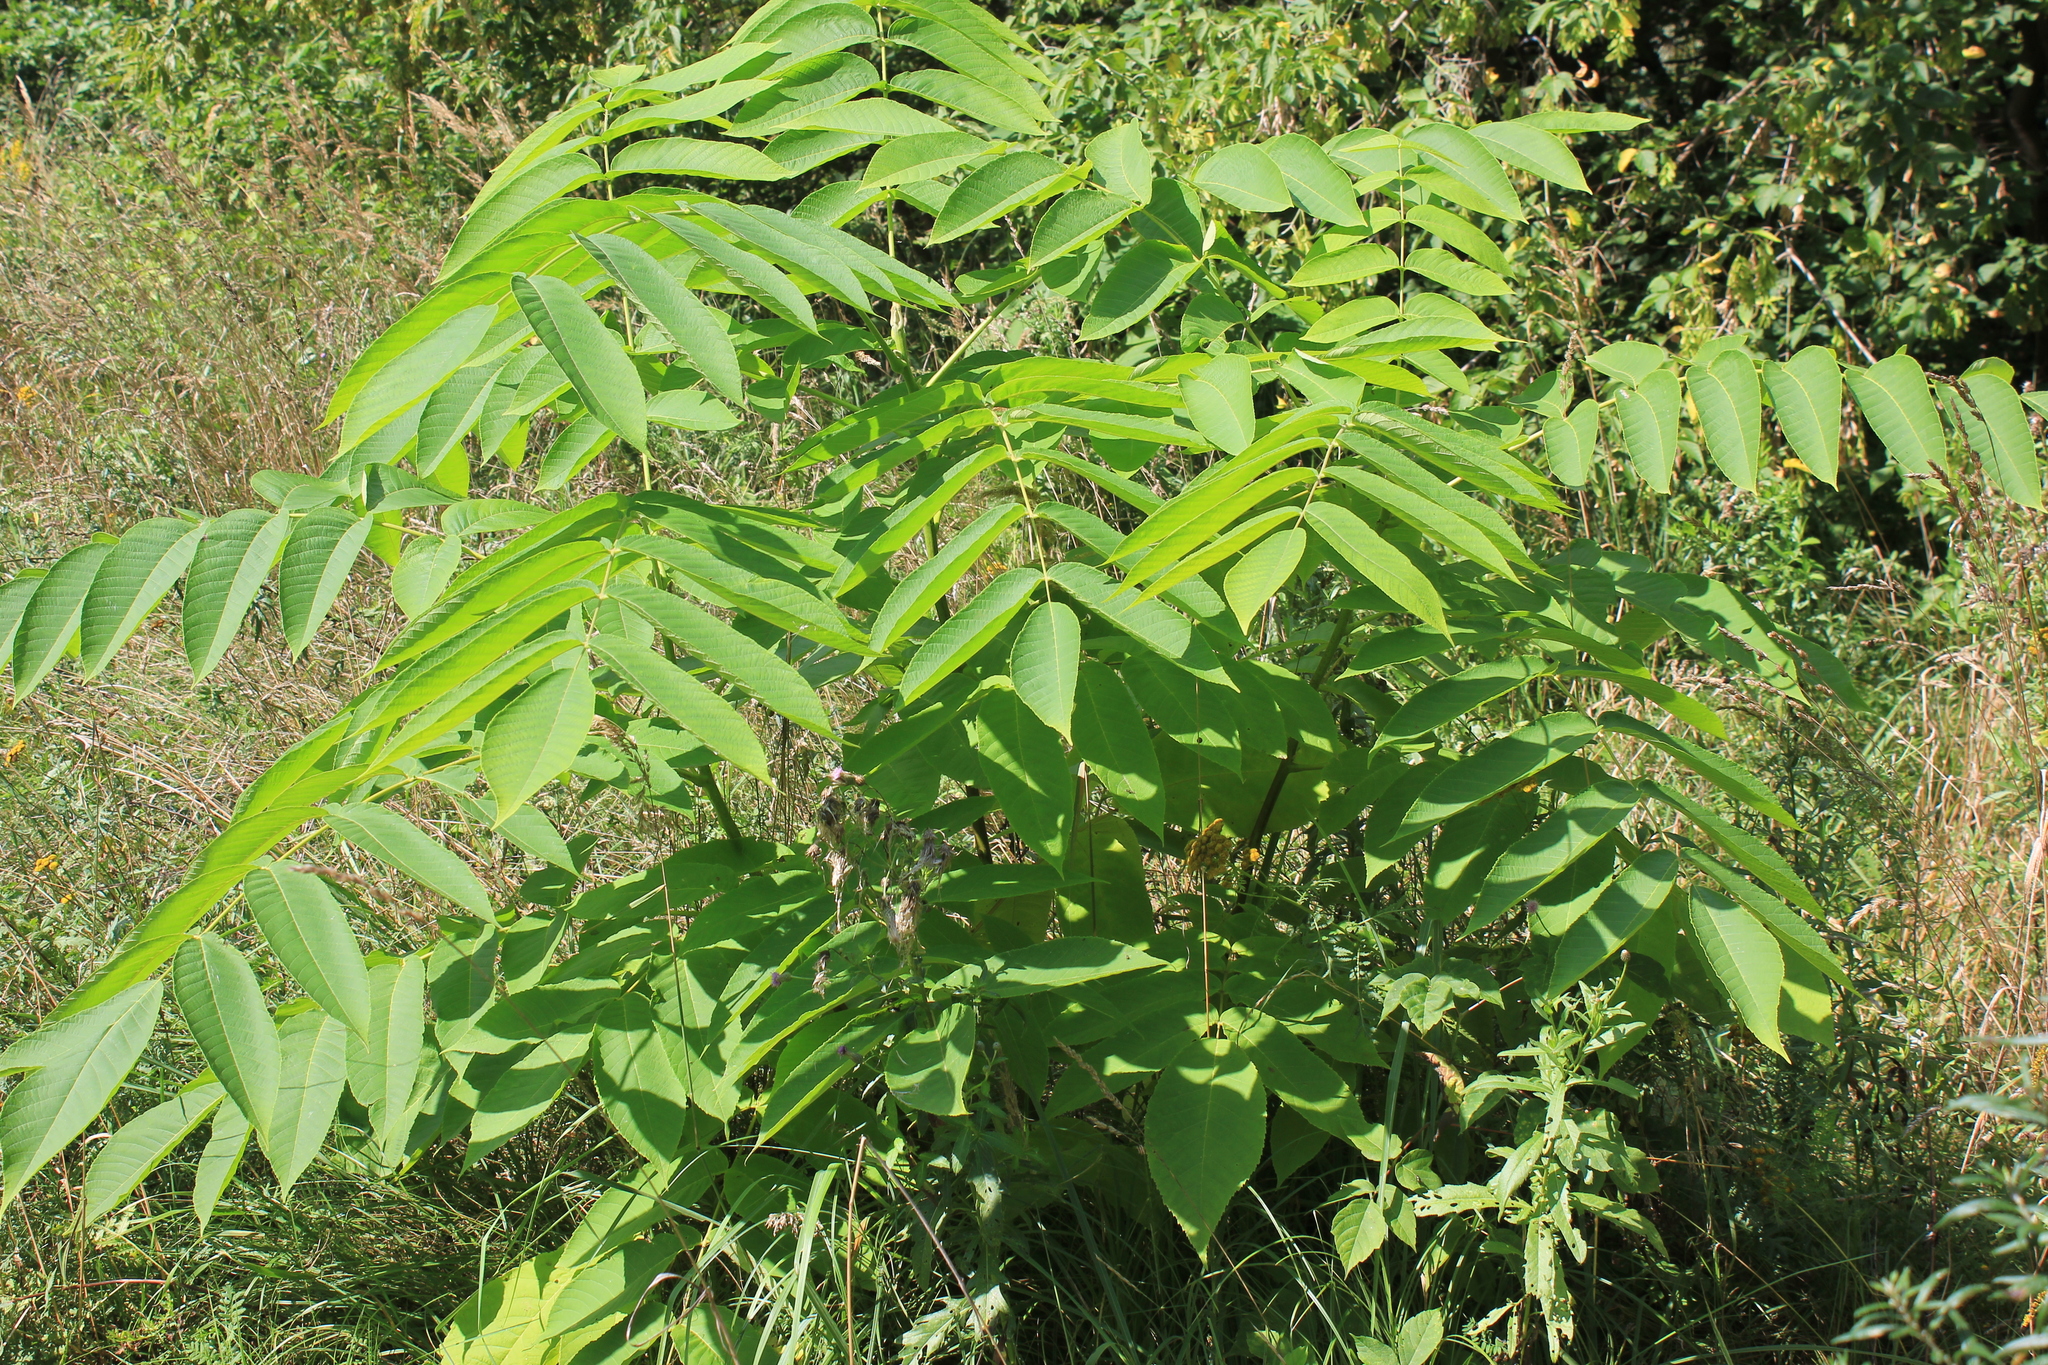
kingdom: Plantae
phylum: Tracheophyta
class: Magnoliopsida
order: Fagales
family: Juglandaceae
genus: Juglans
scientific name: Juglans mandshurica
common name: Manchurian walnut
